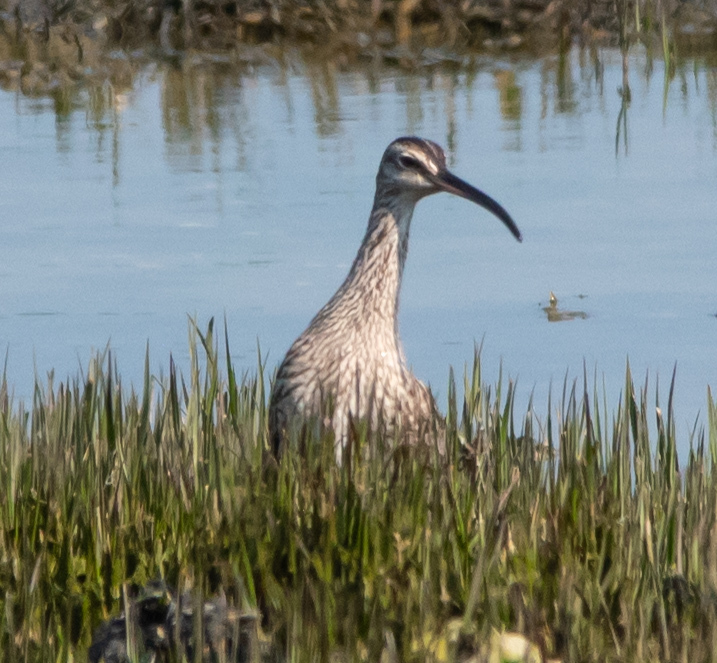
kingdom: Animalia
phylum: Chordata
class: Aves
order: Charadriiformes
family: Scolopacidae
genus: Numenius
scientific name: Numenius phaeopus
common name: Whimbrel
